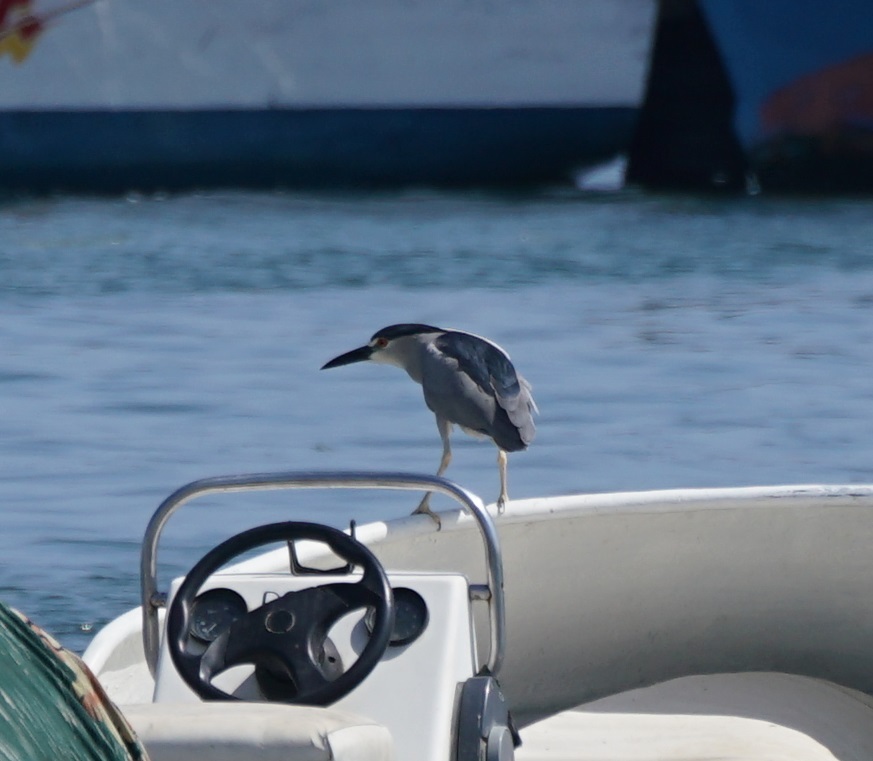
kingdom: Animalia
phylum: Chordata
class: Aves
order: Pelecaniformes
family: Ardeidae
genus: Nycticorax
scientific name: Nycticorax nycticorax
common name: Black-crowned night heron
